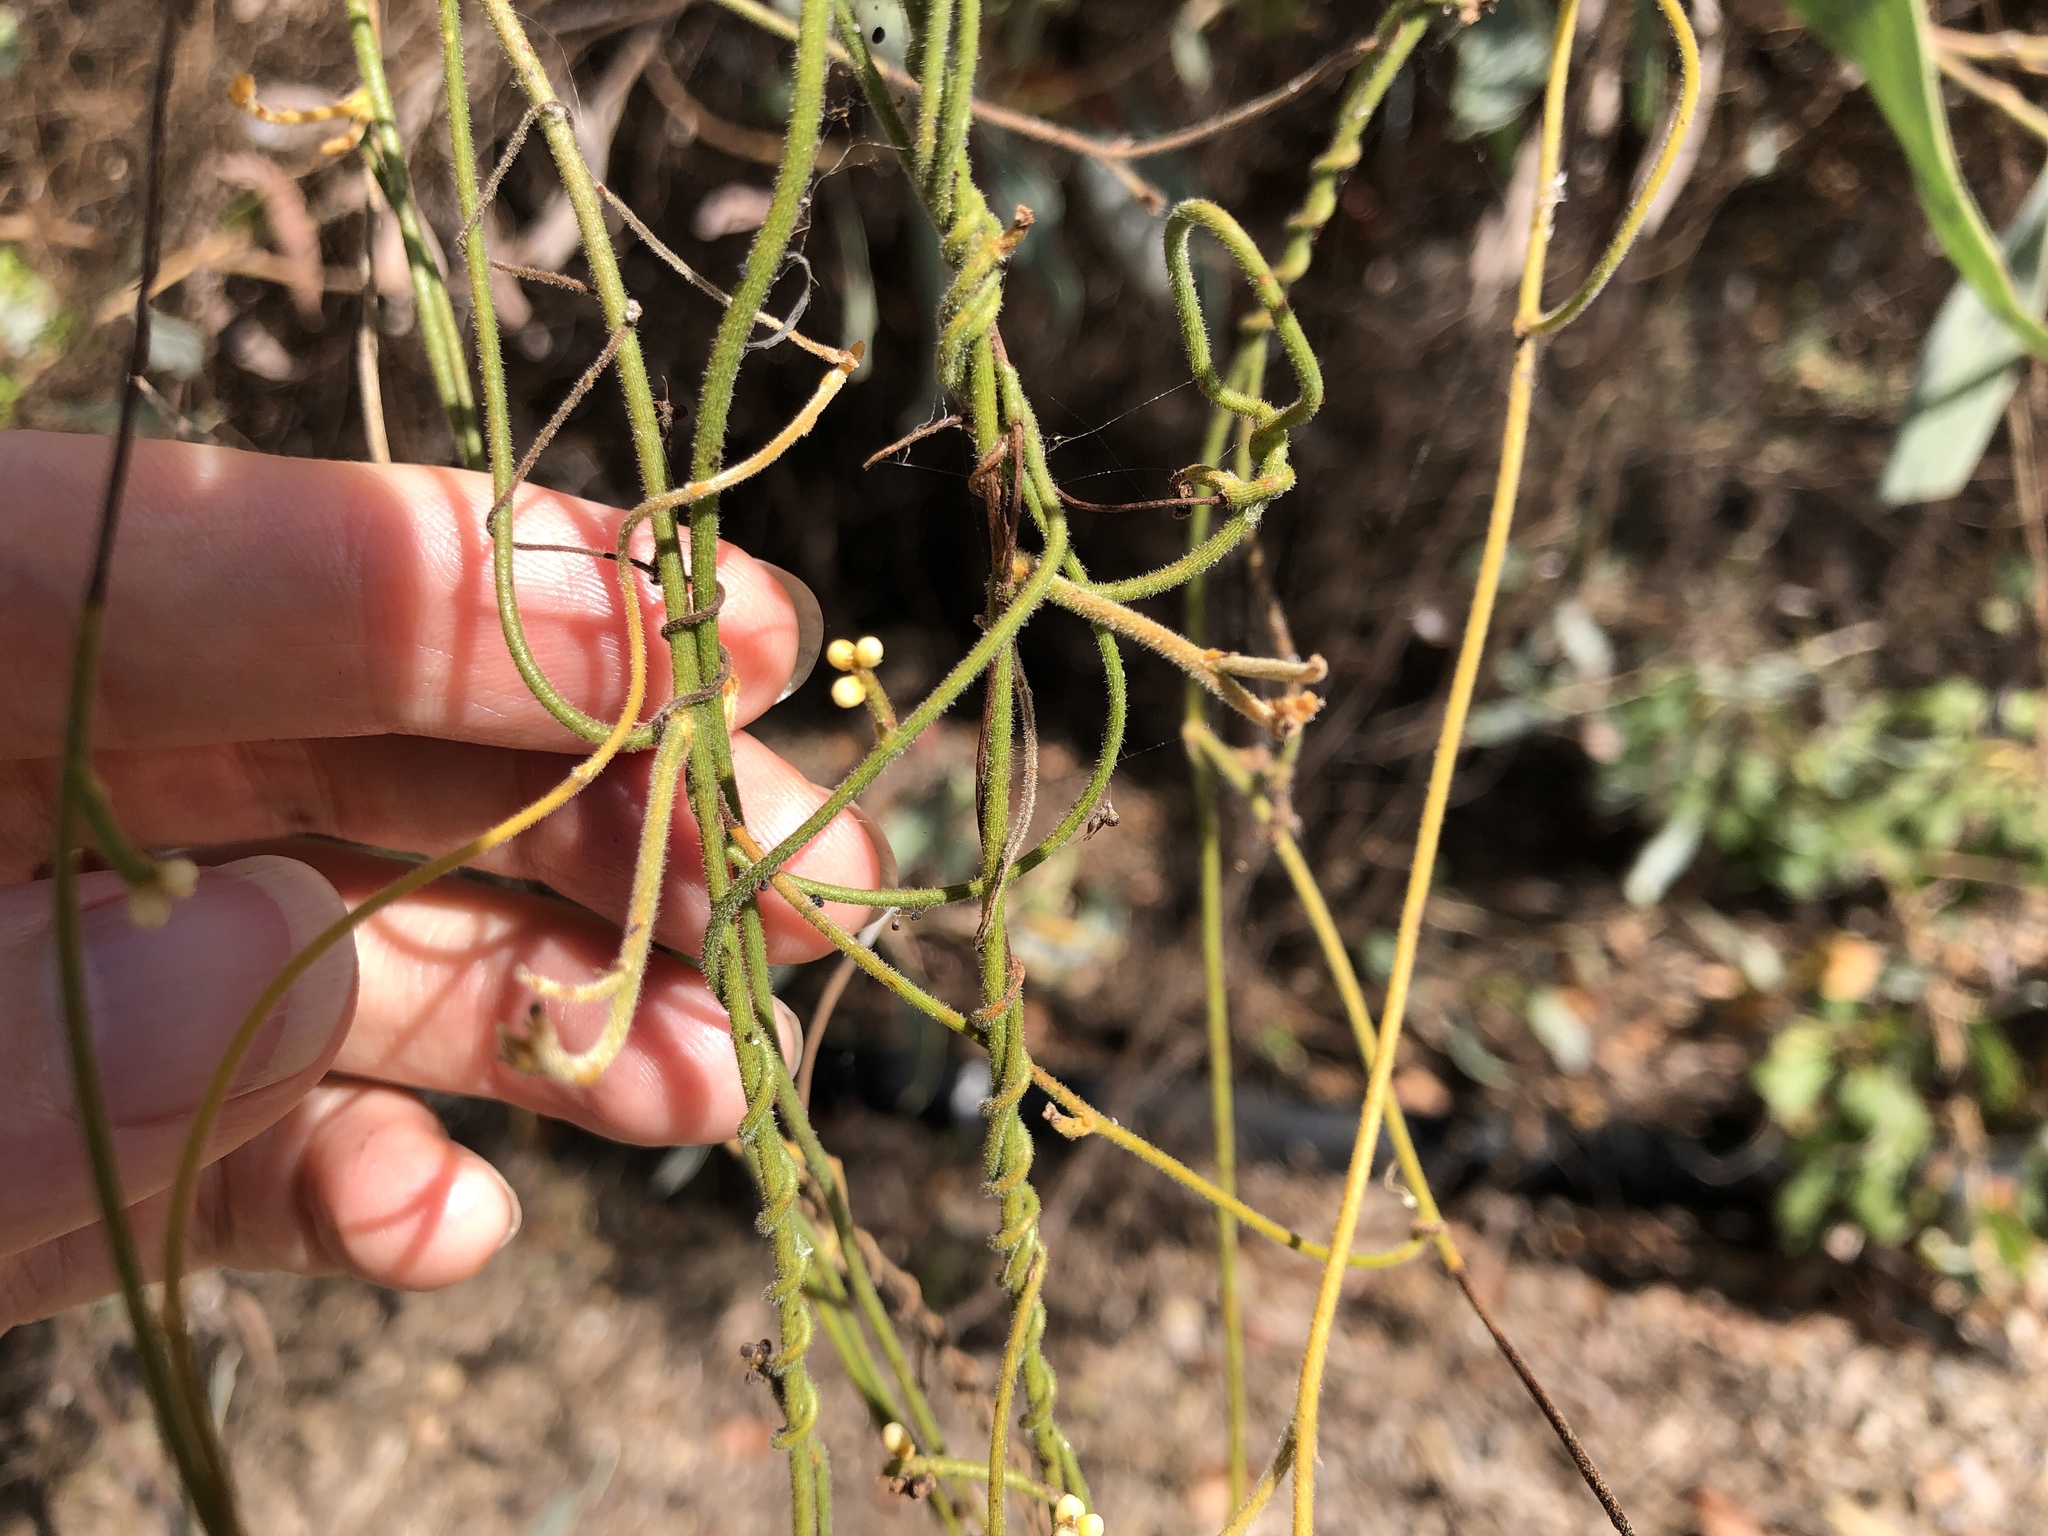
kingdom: Plantae
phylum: Tracheophyta
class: Magnoliopsida
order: Laurales
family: Lauraceae
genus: Cassytha
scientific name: Cassytha filiformis
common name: Dodder-laurel
